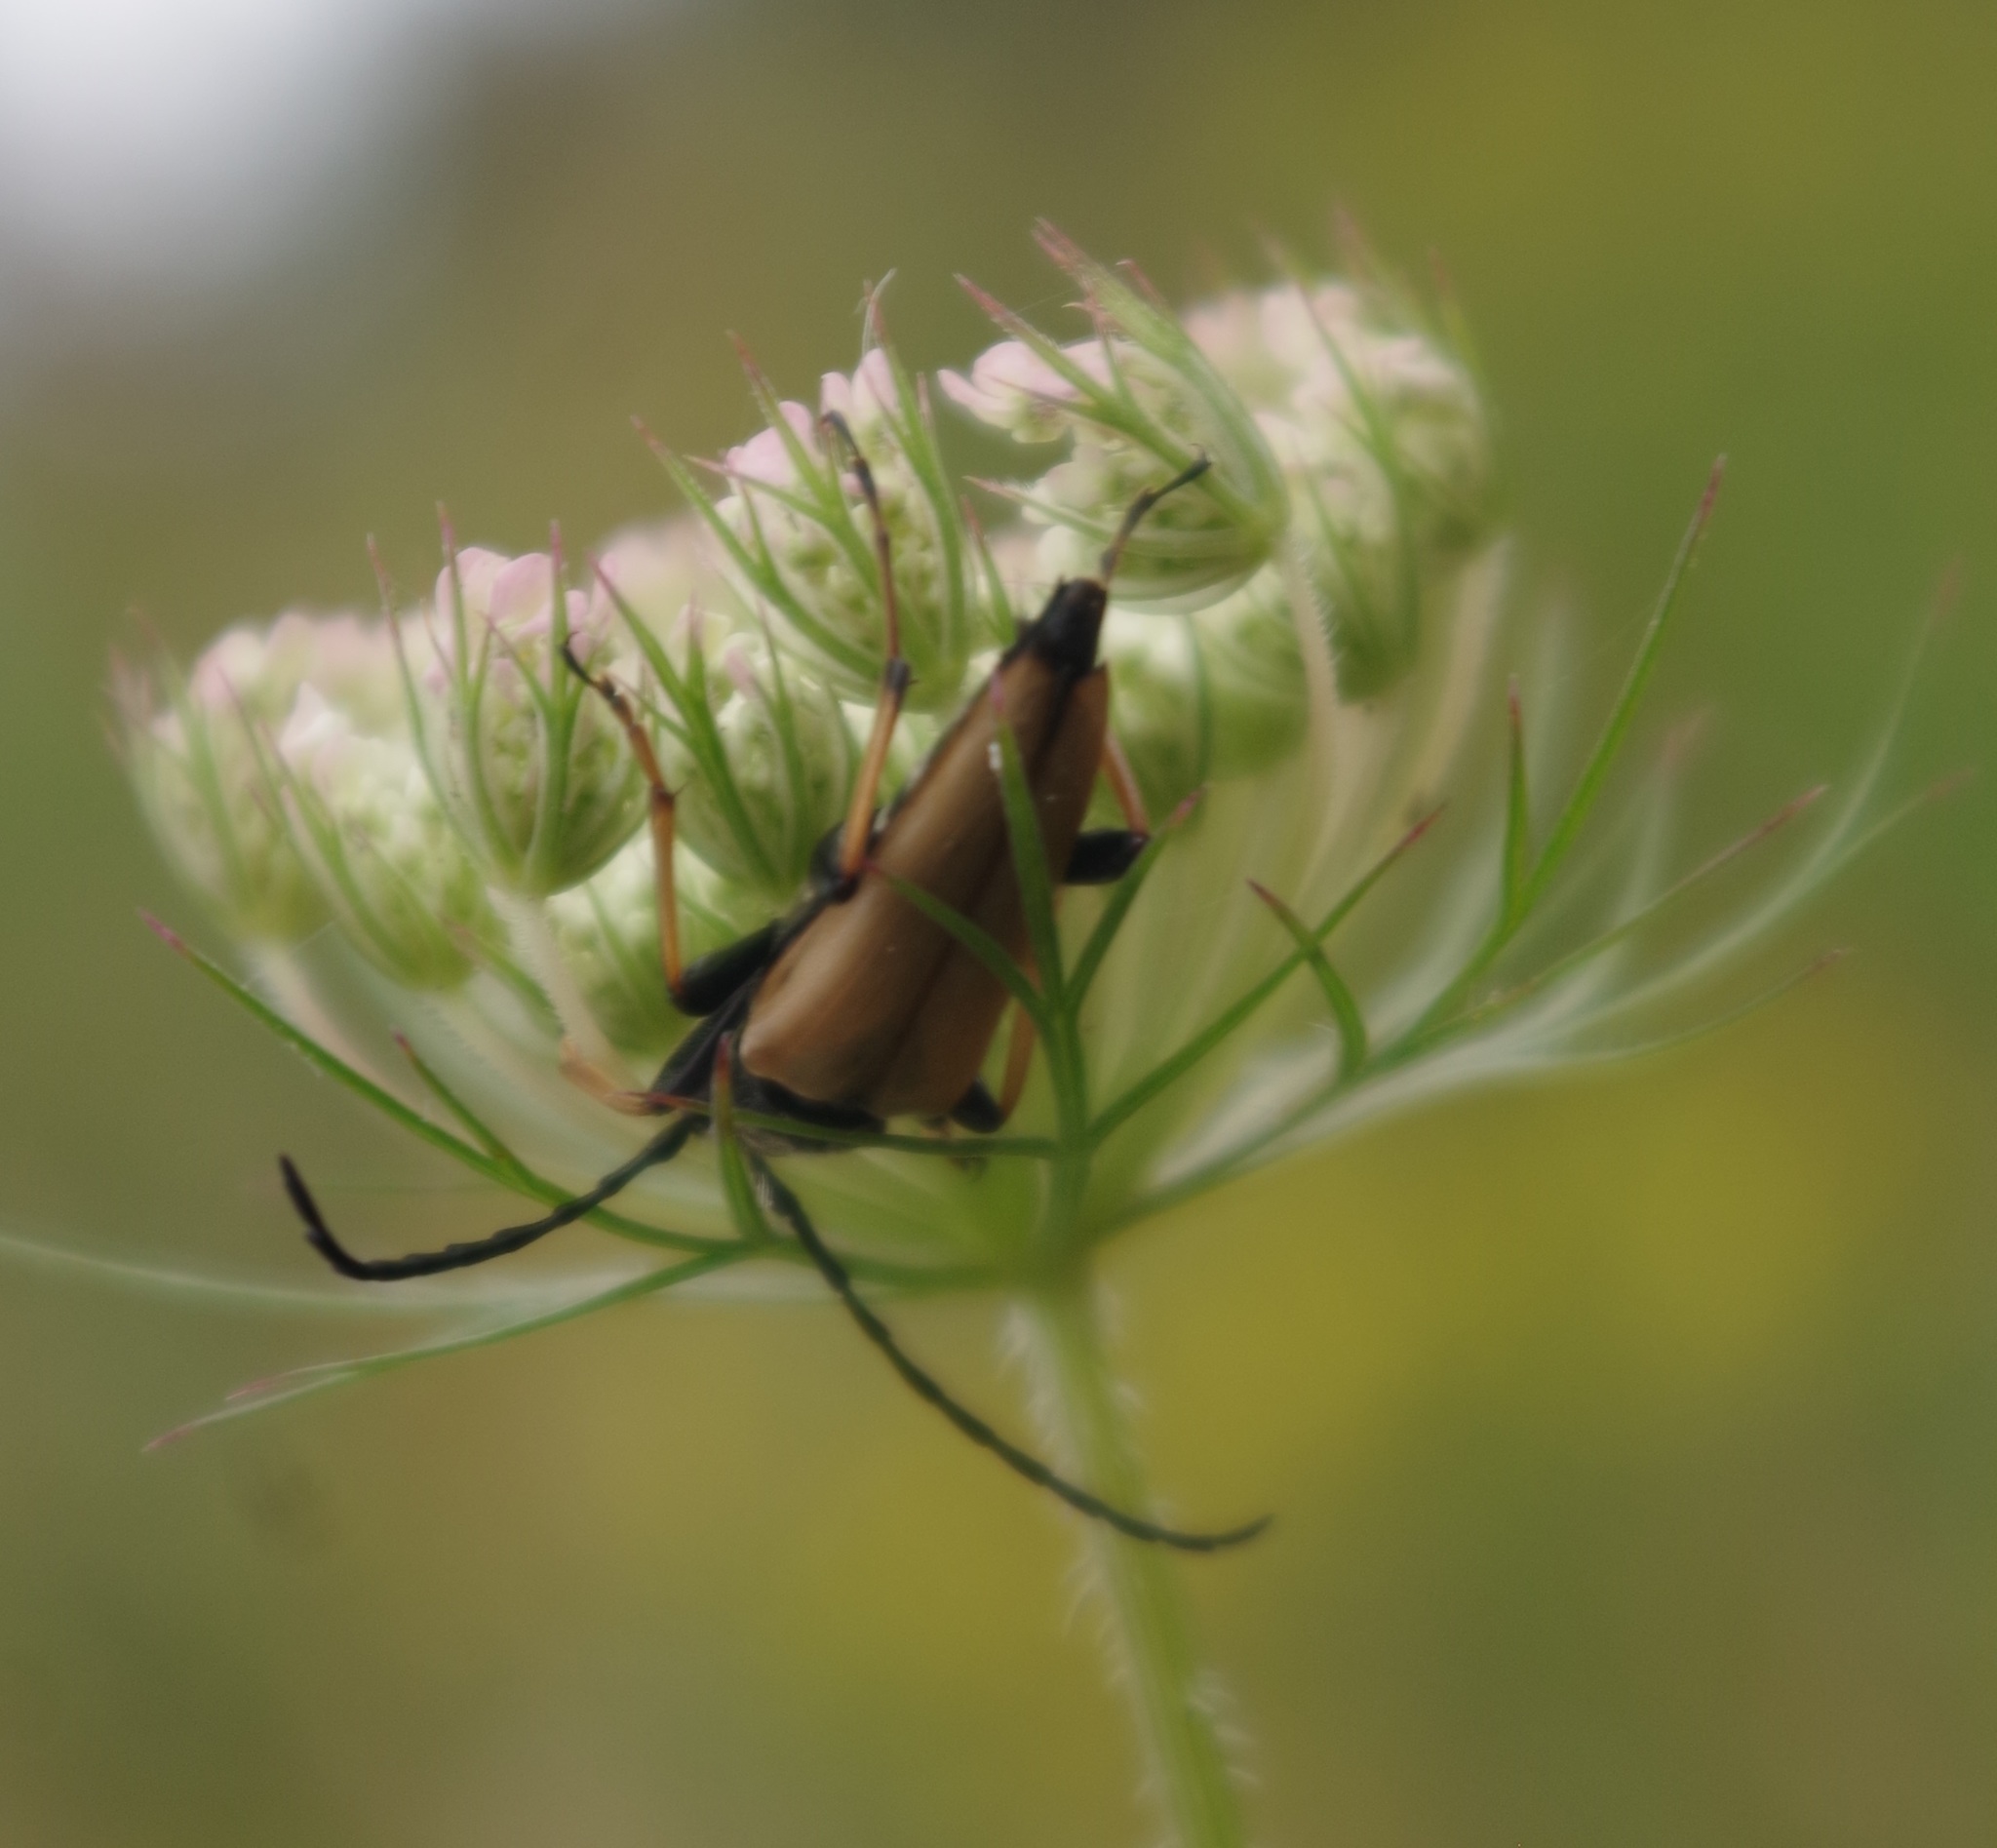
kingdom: Animalia
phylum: Arthropoda
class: Insecta
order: Coleoptera
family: Cerambycidae
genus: Stictoleptura
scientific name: Stictoleptura rubra
